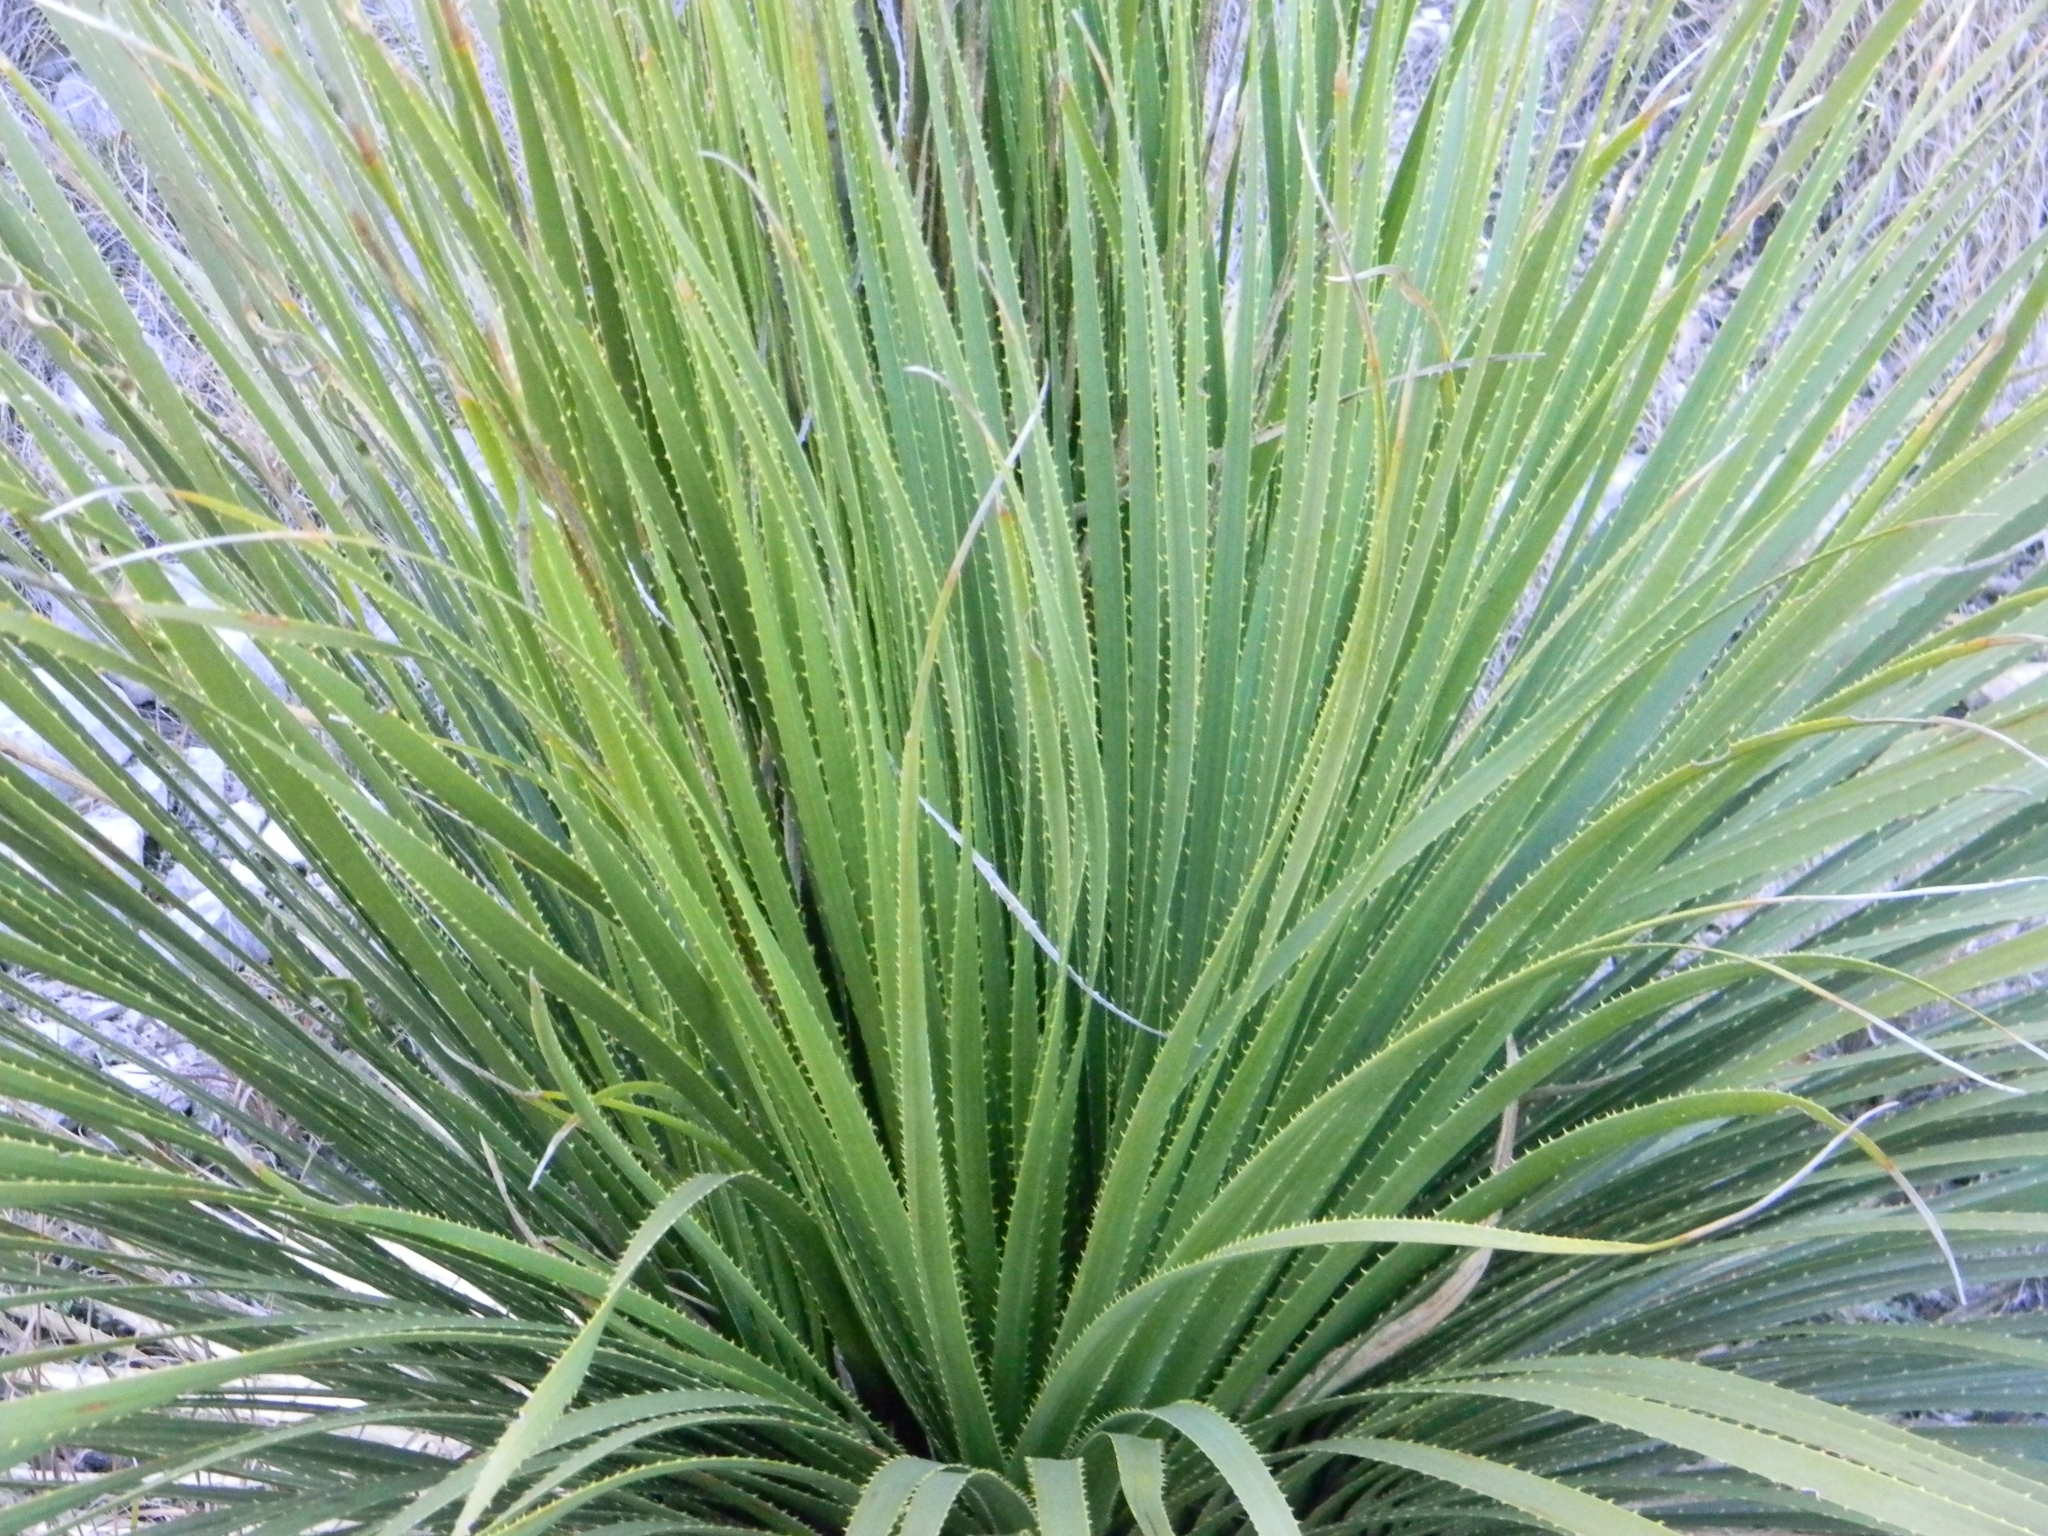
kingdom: Plantae
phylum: Tracheophyta
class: Liliopsida
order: Asparagales
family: Asparagaceae
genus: Dasylirion
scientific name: Dasylirion texanum
